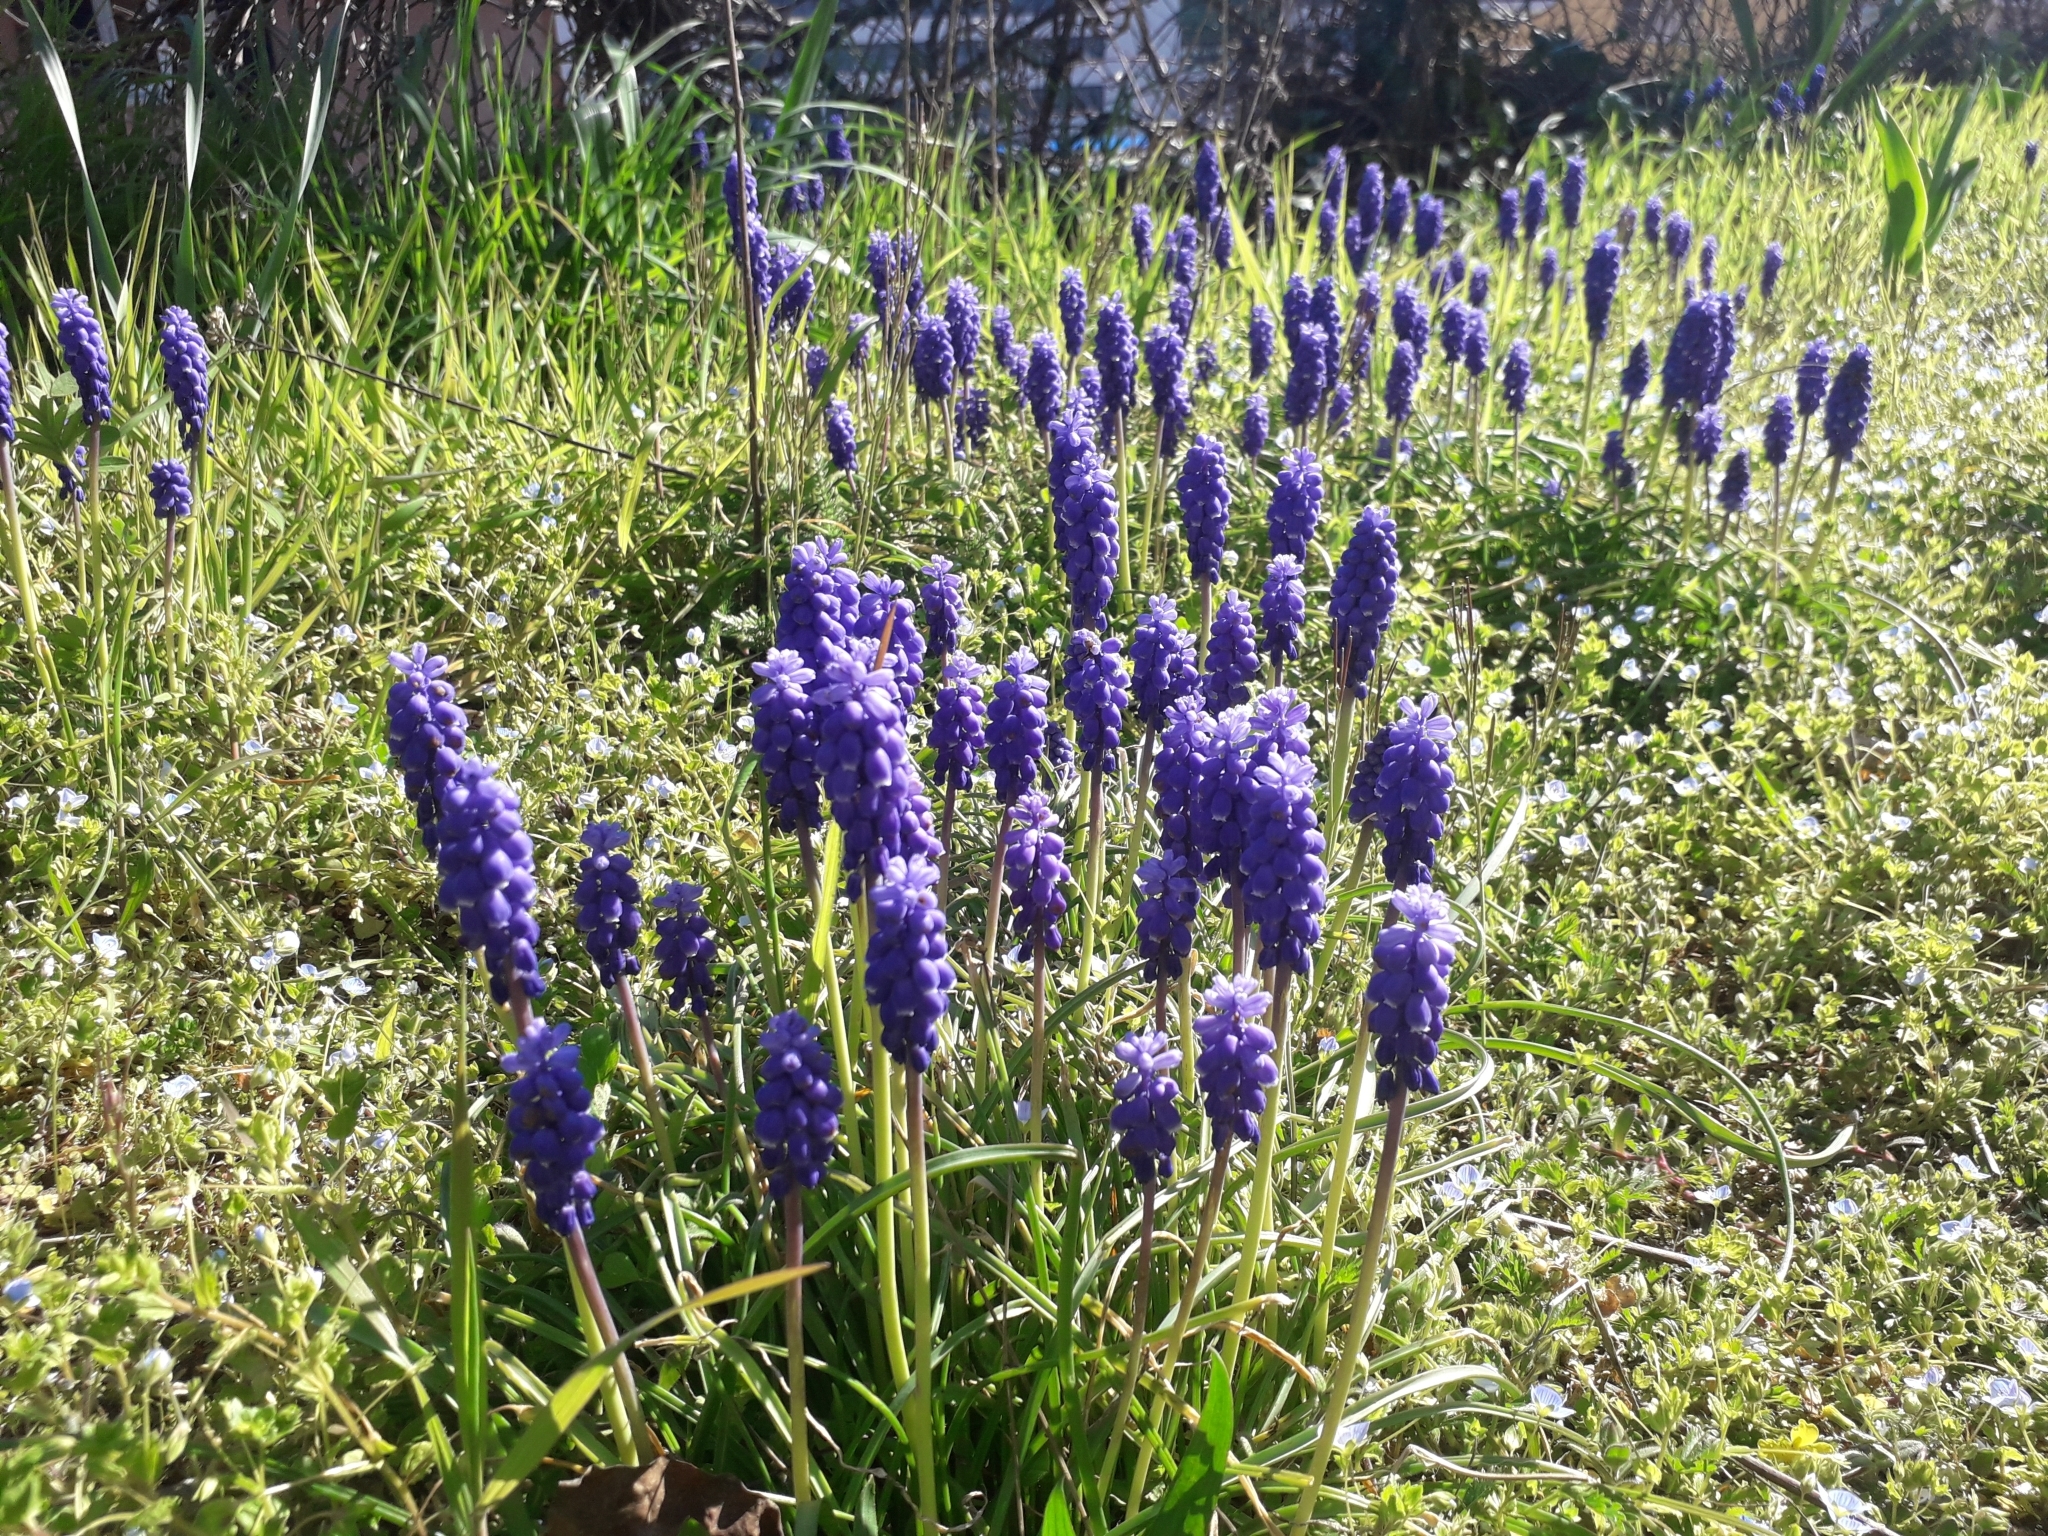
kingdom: Plantae
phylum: Tracheophyta
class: Liliopsida
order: Asparagales
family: Asparagaceae
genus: Muscari
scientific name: Muscari neglectum
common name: Grape-hyacinth
